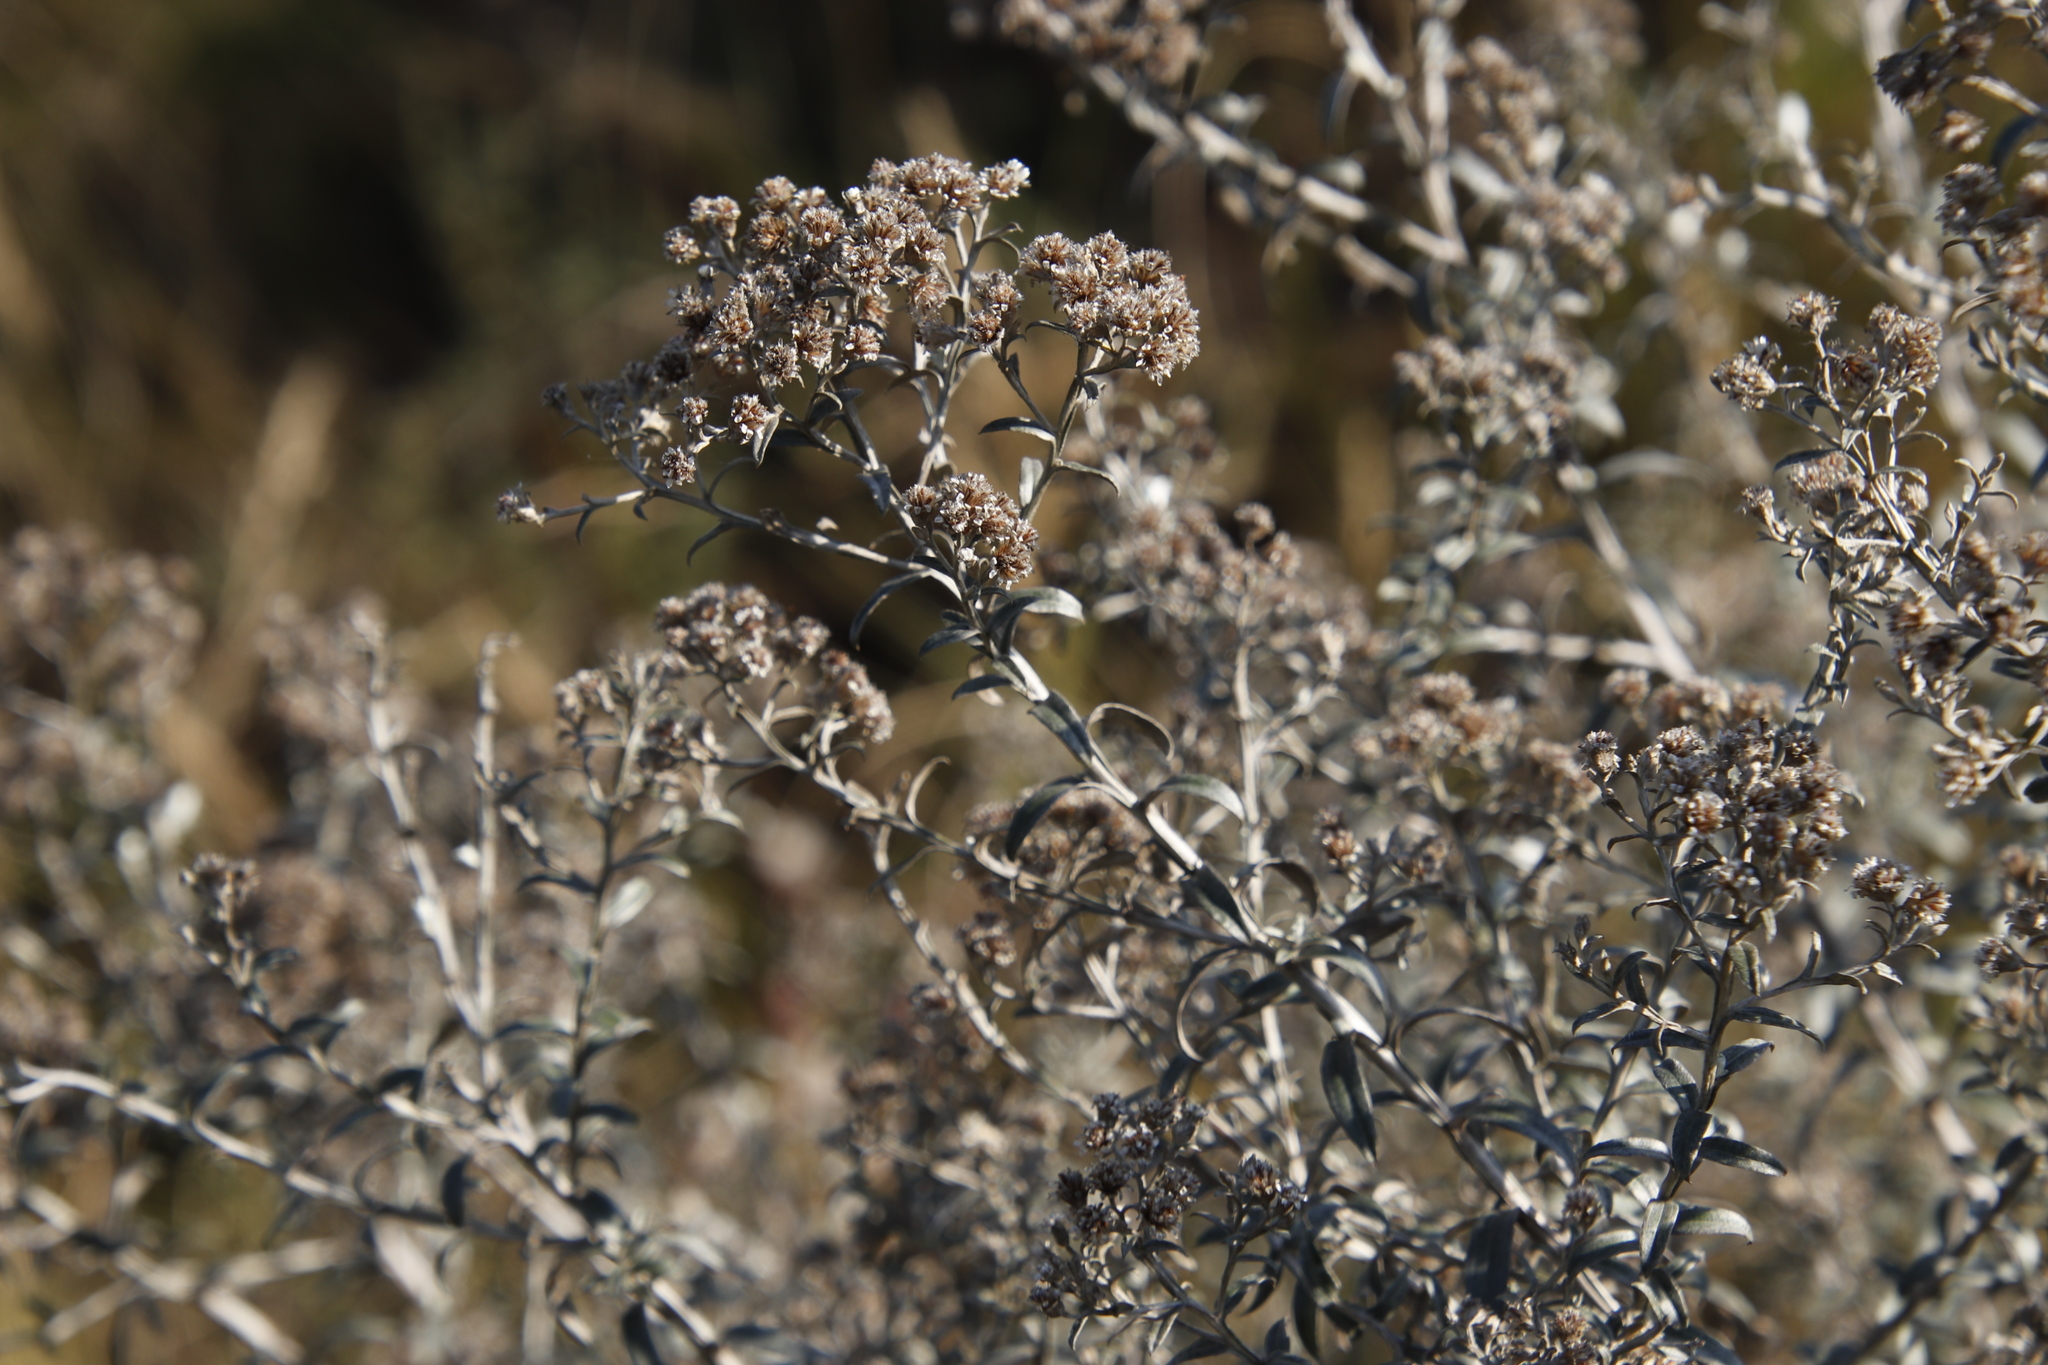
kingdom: Plantae
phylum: Tracheophyta
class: Magnoliopsida
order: Asterales
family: Asteraceae
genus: Tenrhynea
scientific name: Tenrhynea phylicifolia
